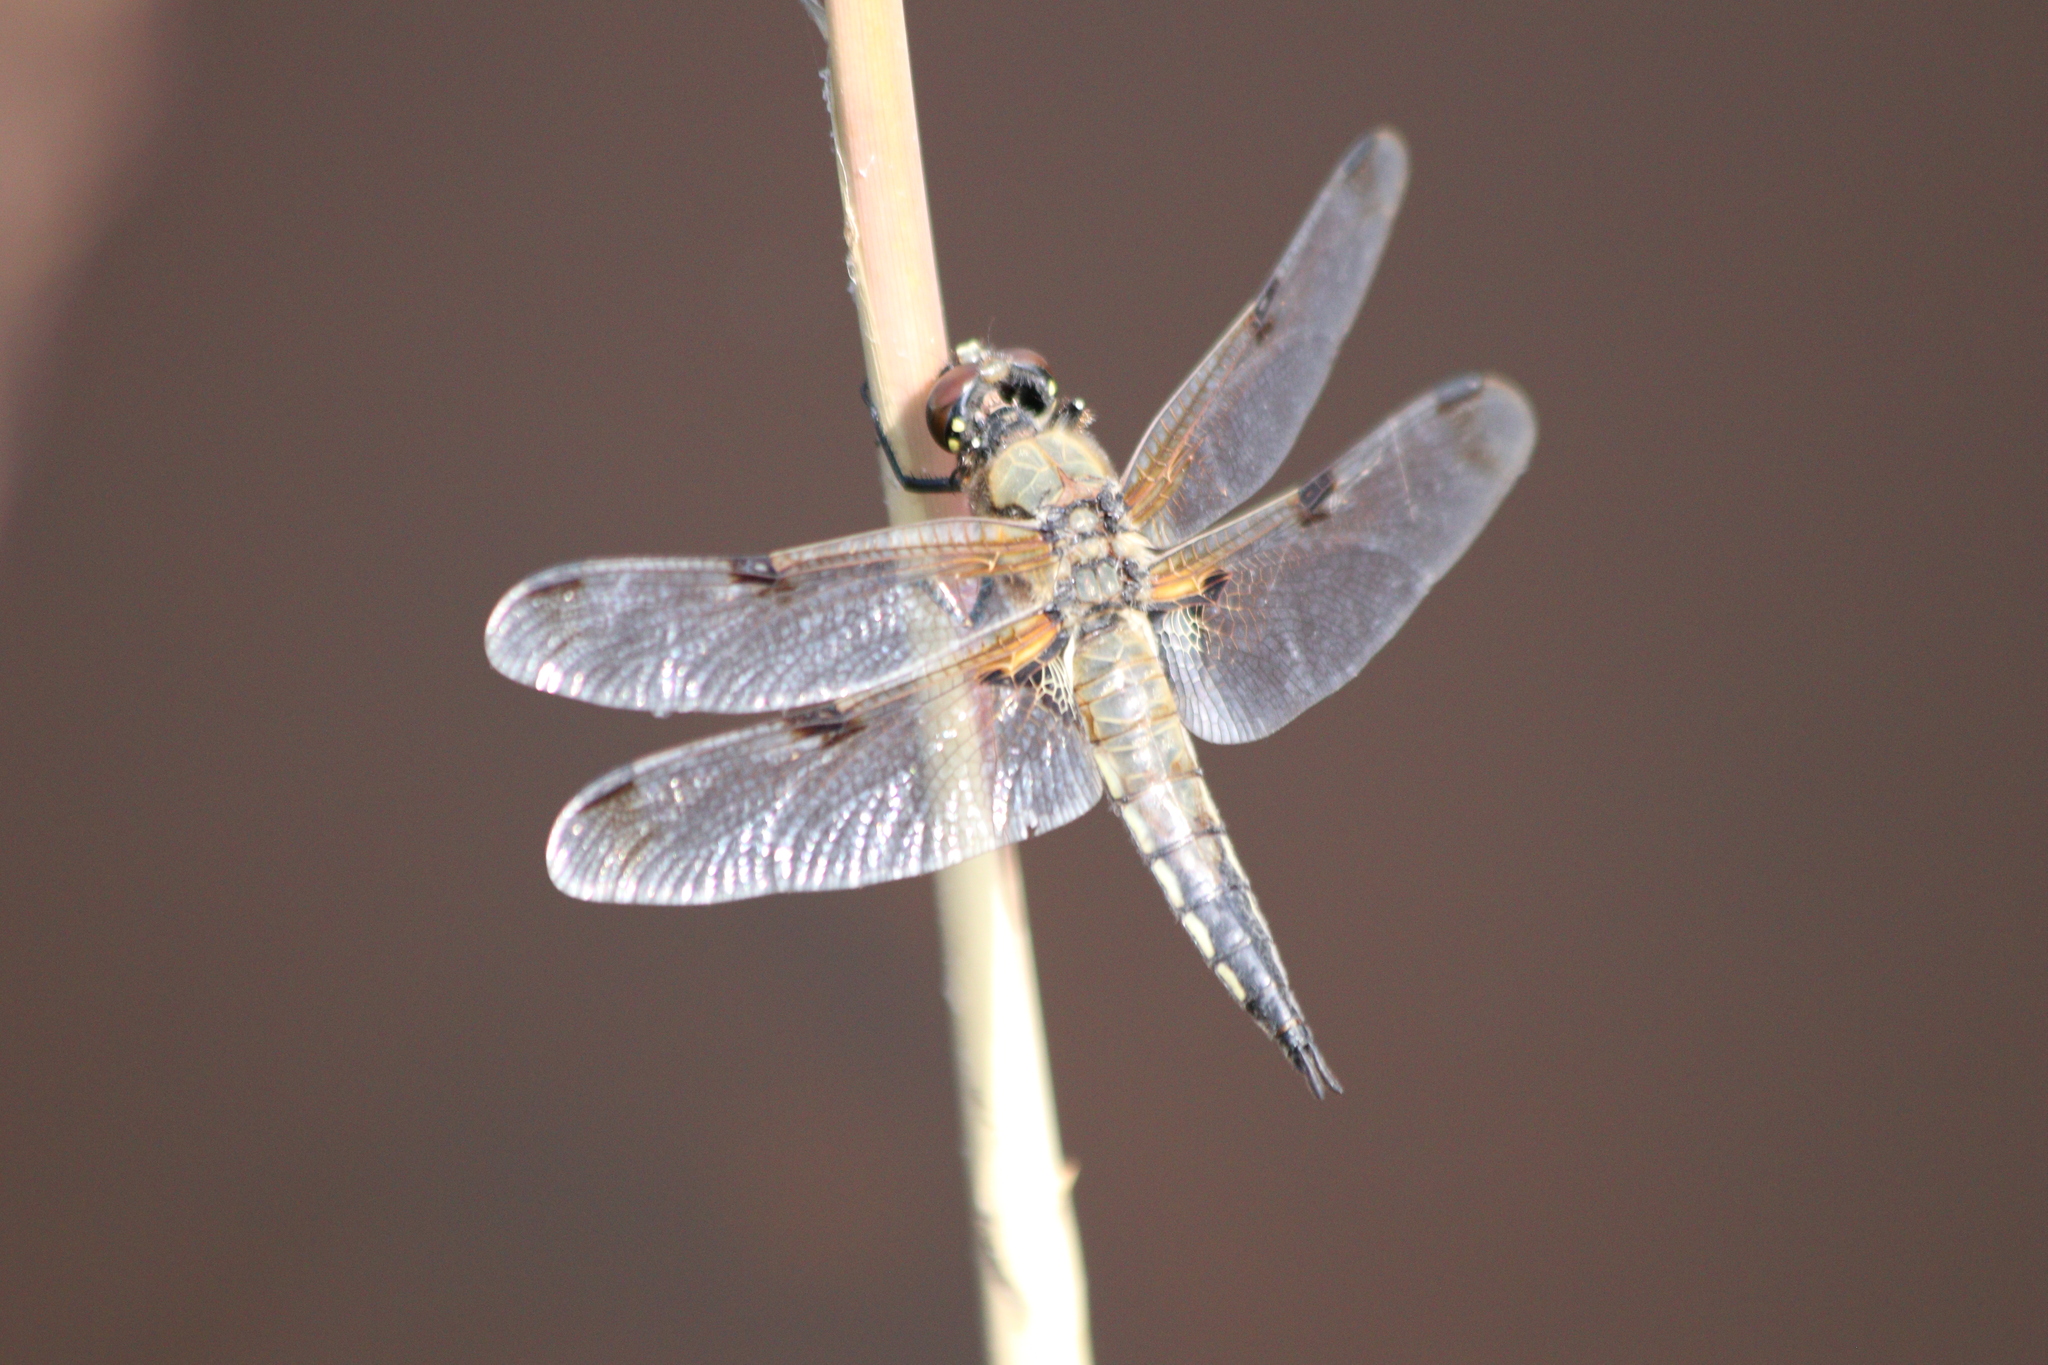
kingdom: Animalia
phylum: Arthropoda
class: Insecta
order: Odonata
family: Libellulidae
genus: Libellula
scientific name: Libellula quadrimaculata
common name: Four-spotted chaser
